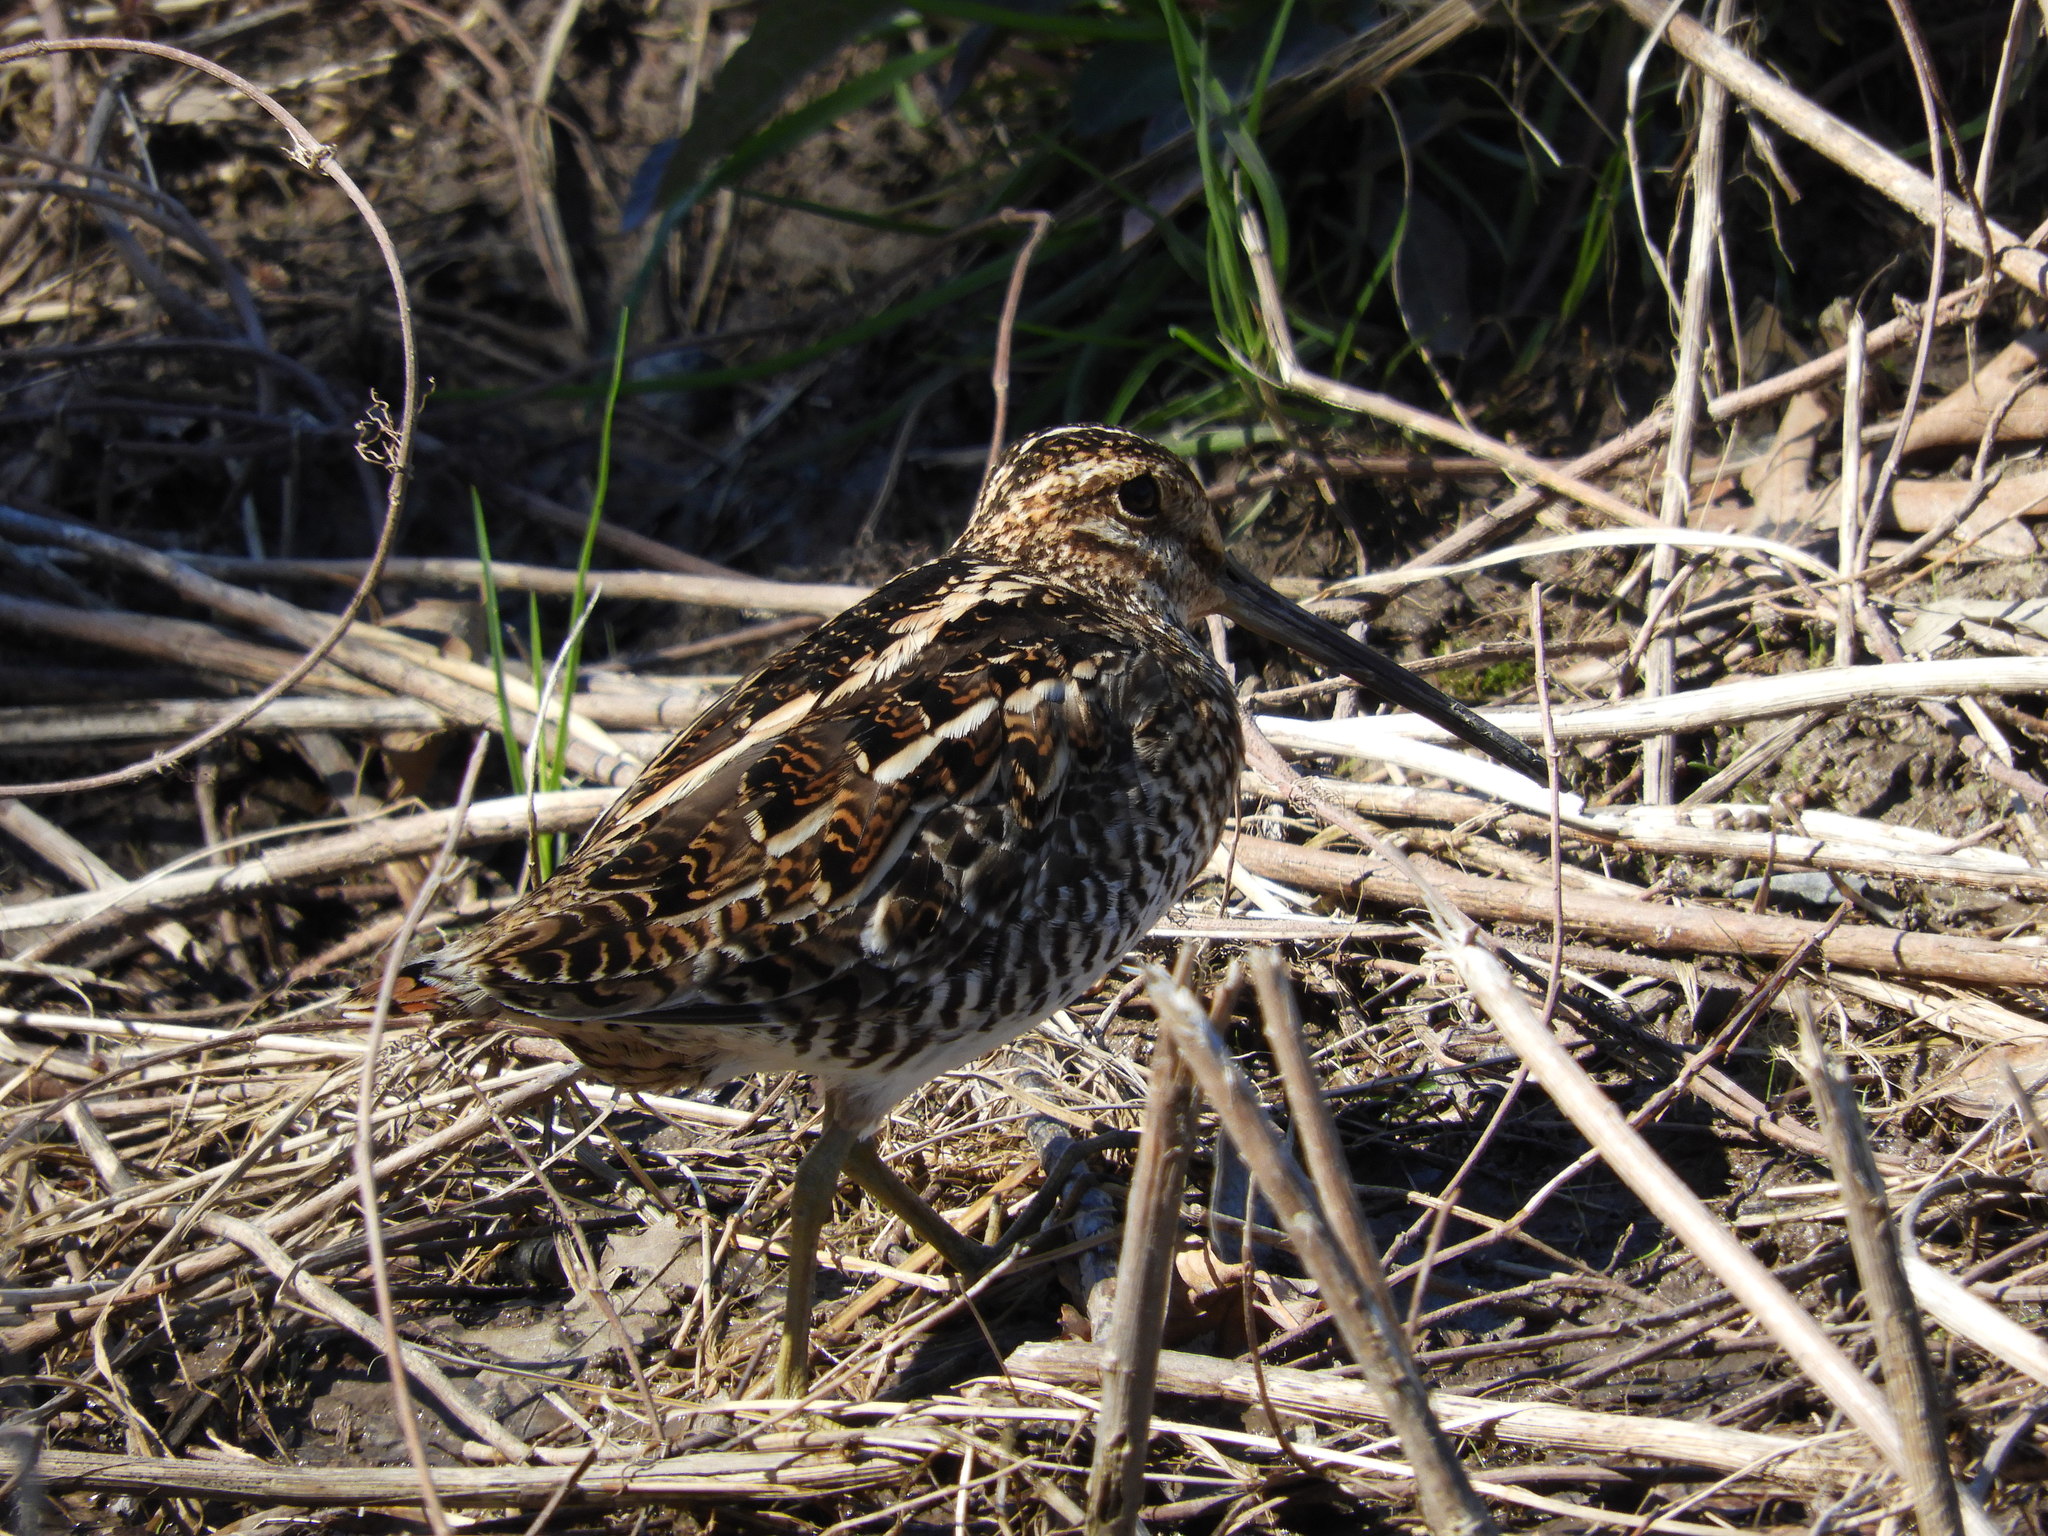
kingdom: Animalia
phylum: Chordata
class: Aves
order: Charadriiformes
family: Scolopacidae
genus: Gallinago
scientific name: Gallinago delicata
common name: Wilson's snipe
